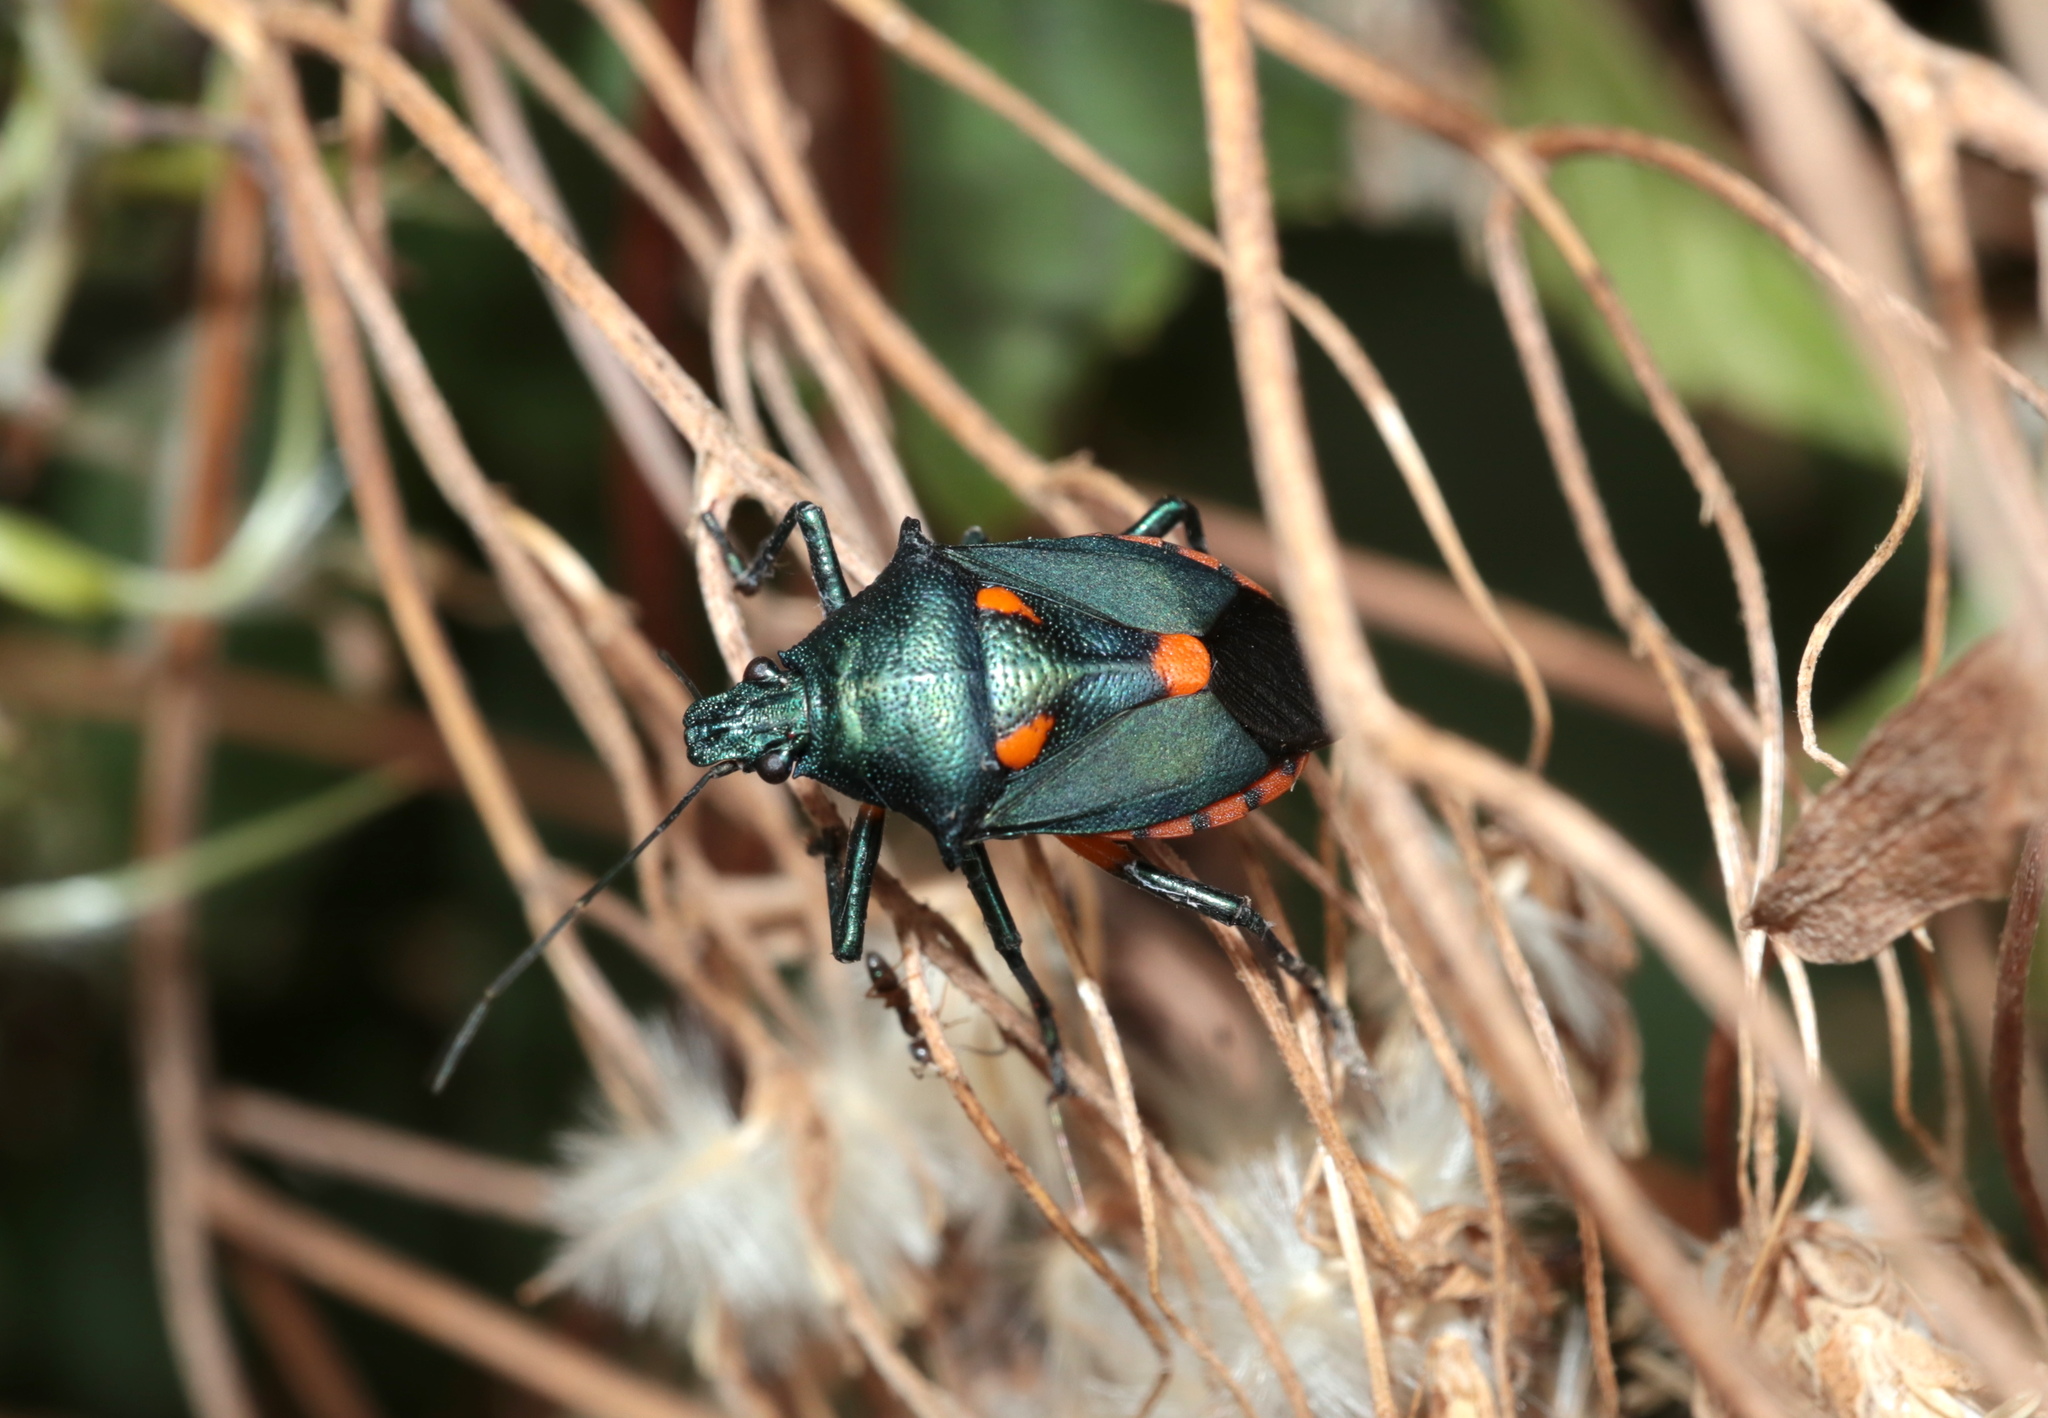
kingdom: Animalia
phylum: Arthropoda
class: Insecta
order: Hemiptera
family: Pentatomidae
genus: Euthyrhynchus
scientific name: Euthyrhynchus floridanus
